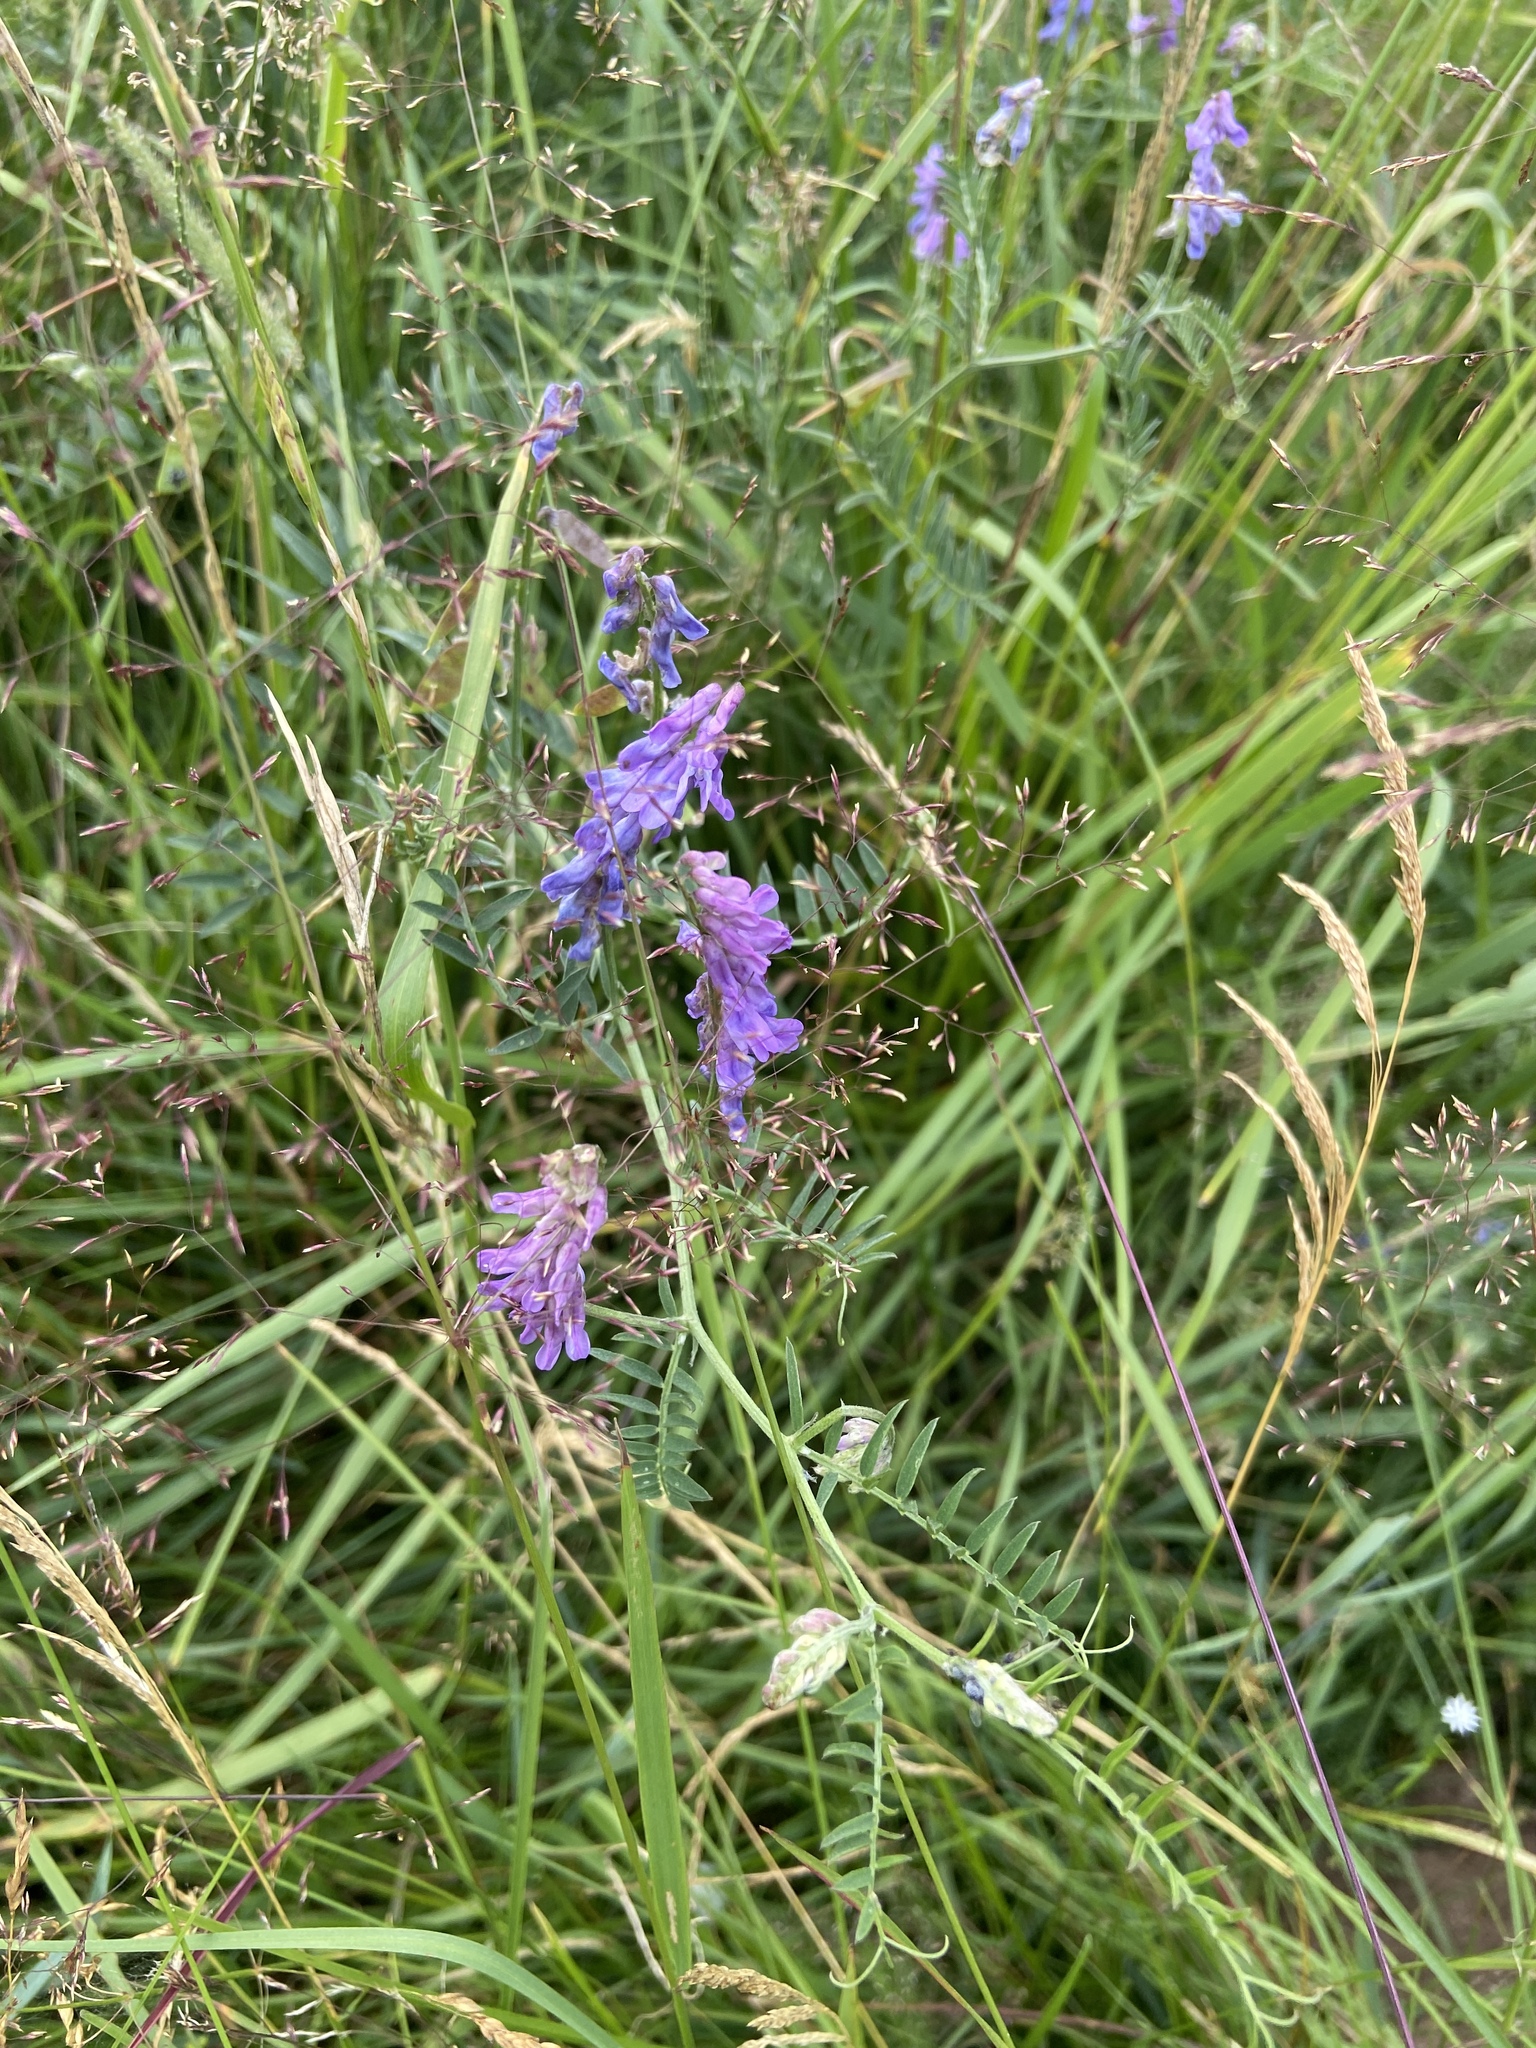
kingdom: Plantae
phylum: Tracheophyta
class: Magnoliopsida
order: Fabales
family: Fabaceae
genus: Vicia
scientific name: Vicia cracca
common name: Bird vetch
